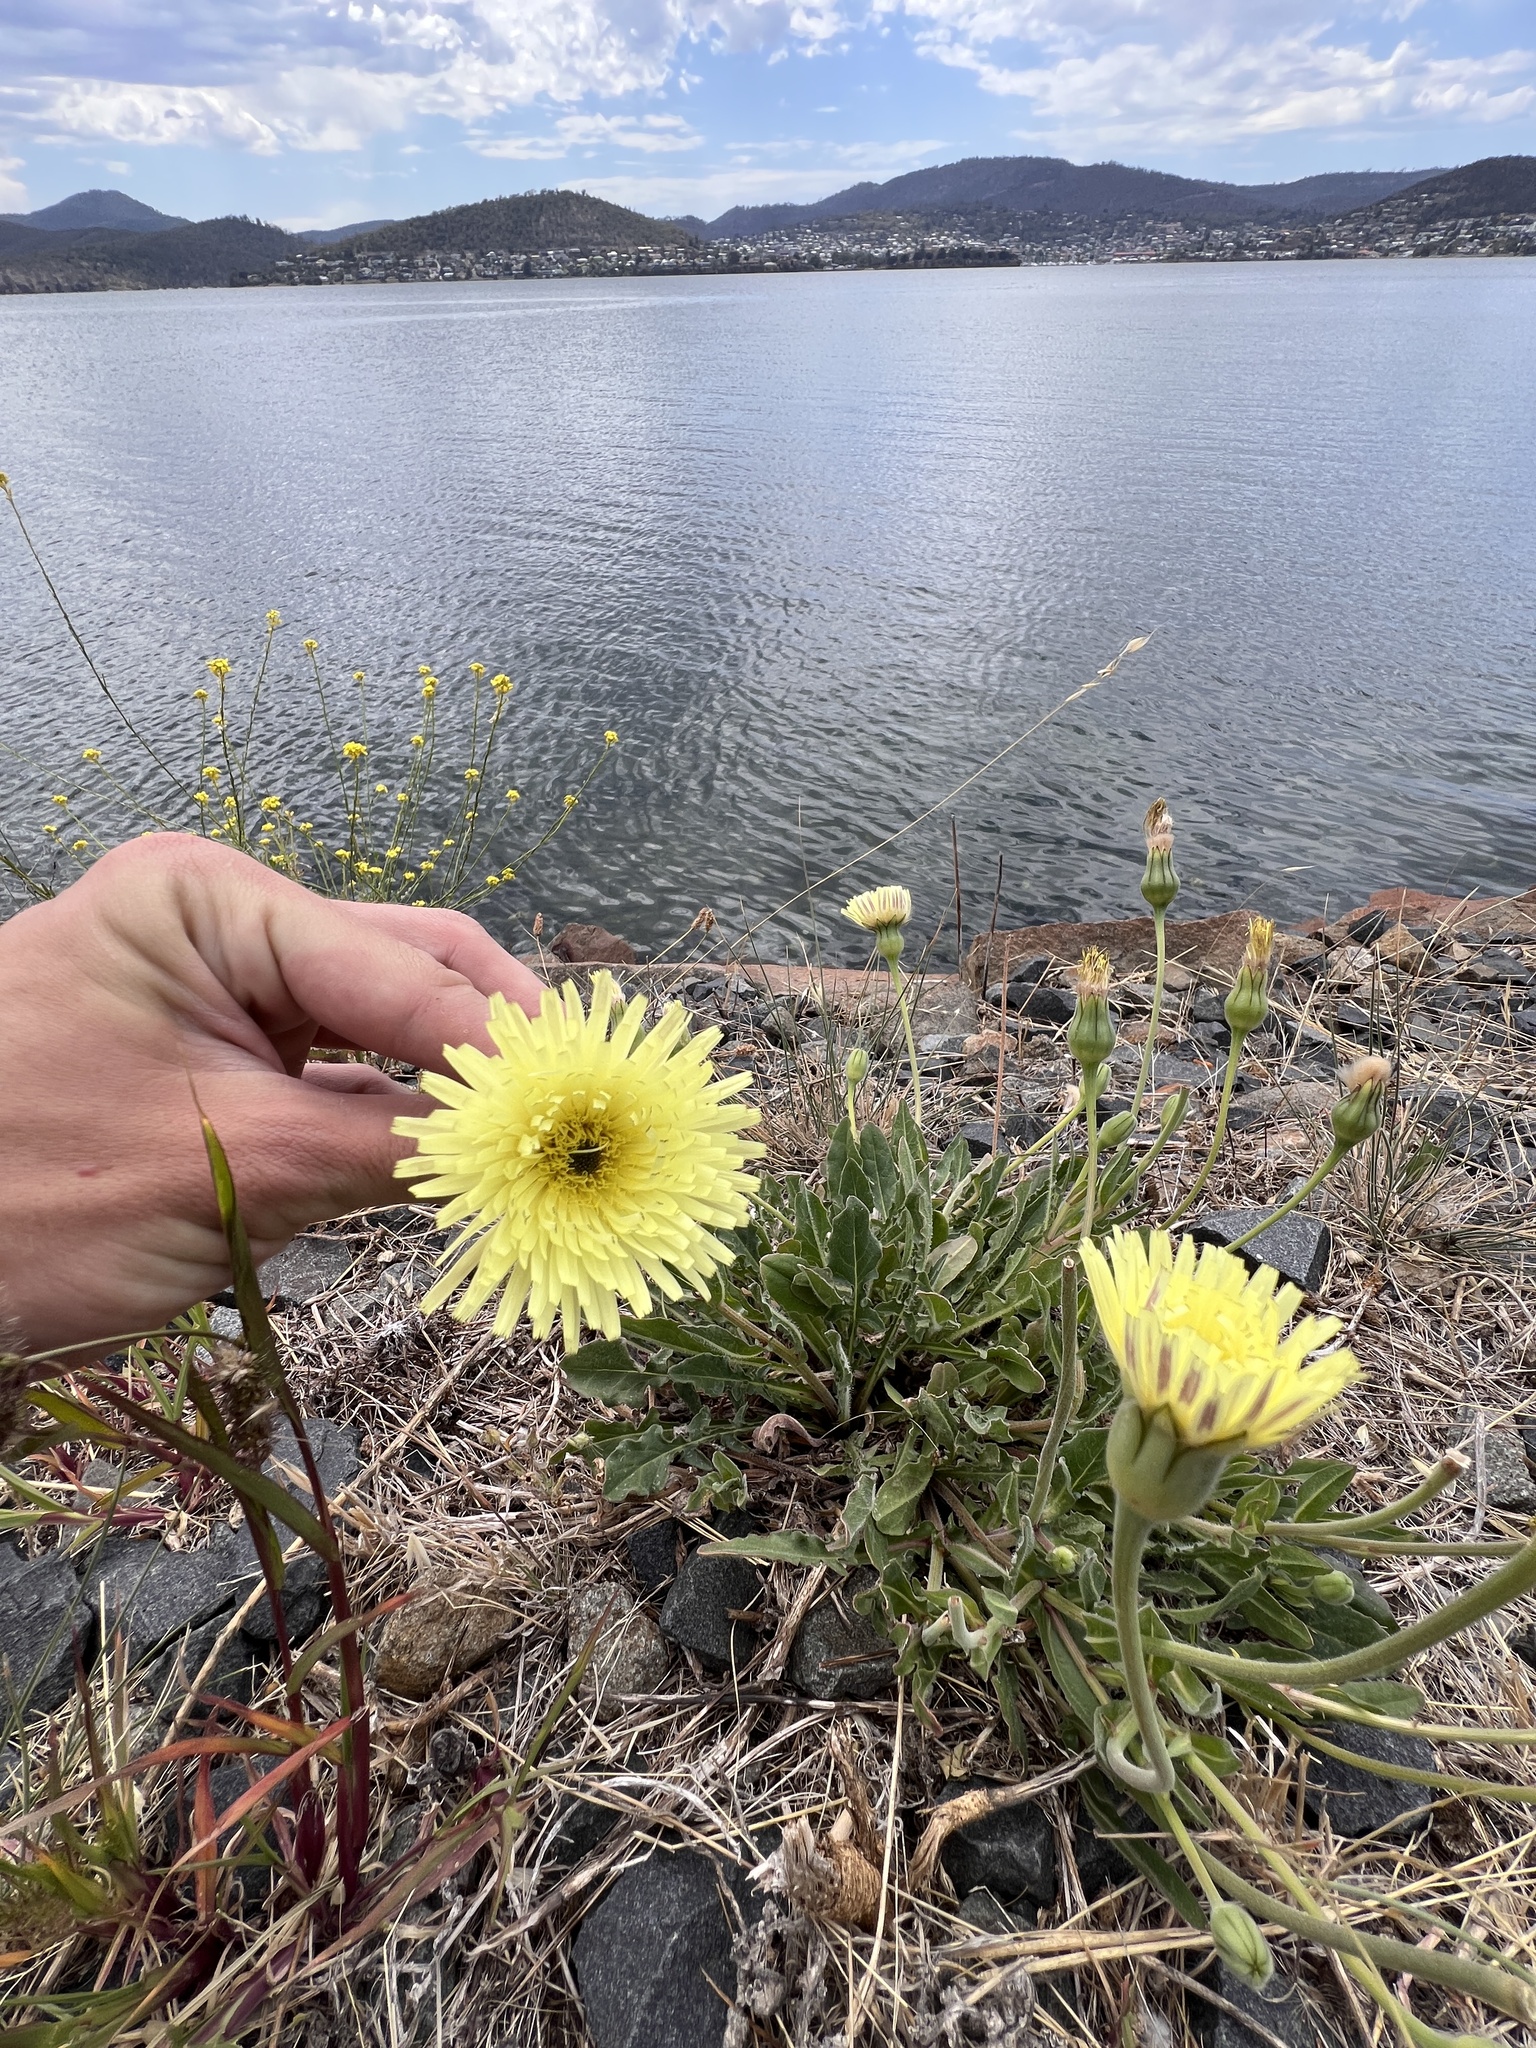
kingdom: Plantae
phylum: Tracheophyta
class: Magnoliopsida
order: Asterales
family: Asteraceae
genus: Urospermum
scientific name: Urospermum dalechampii
